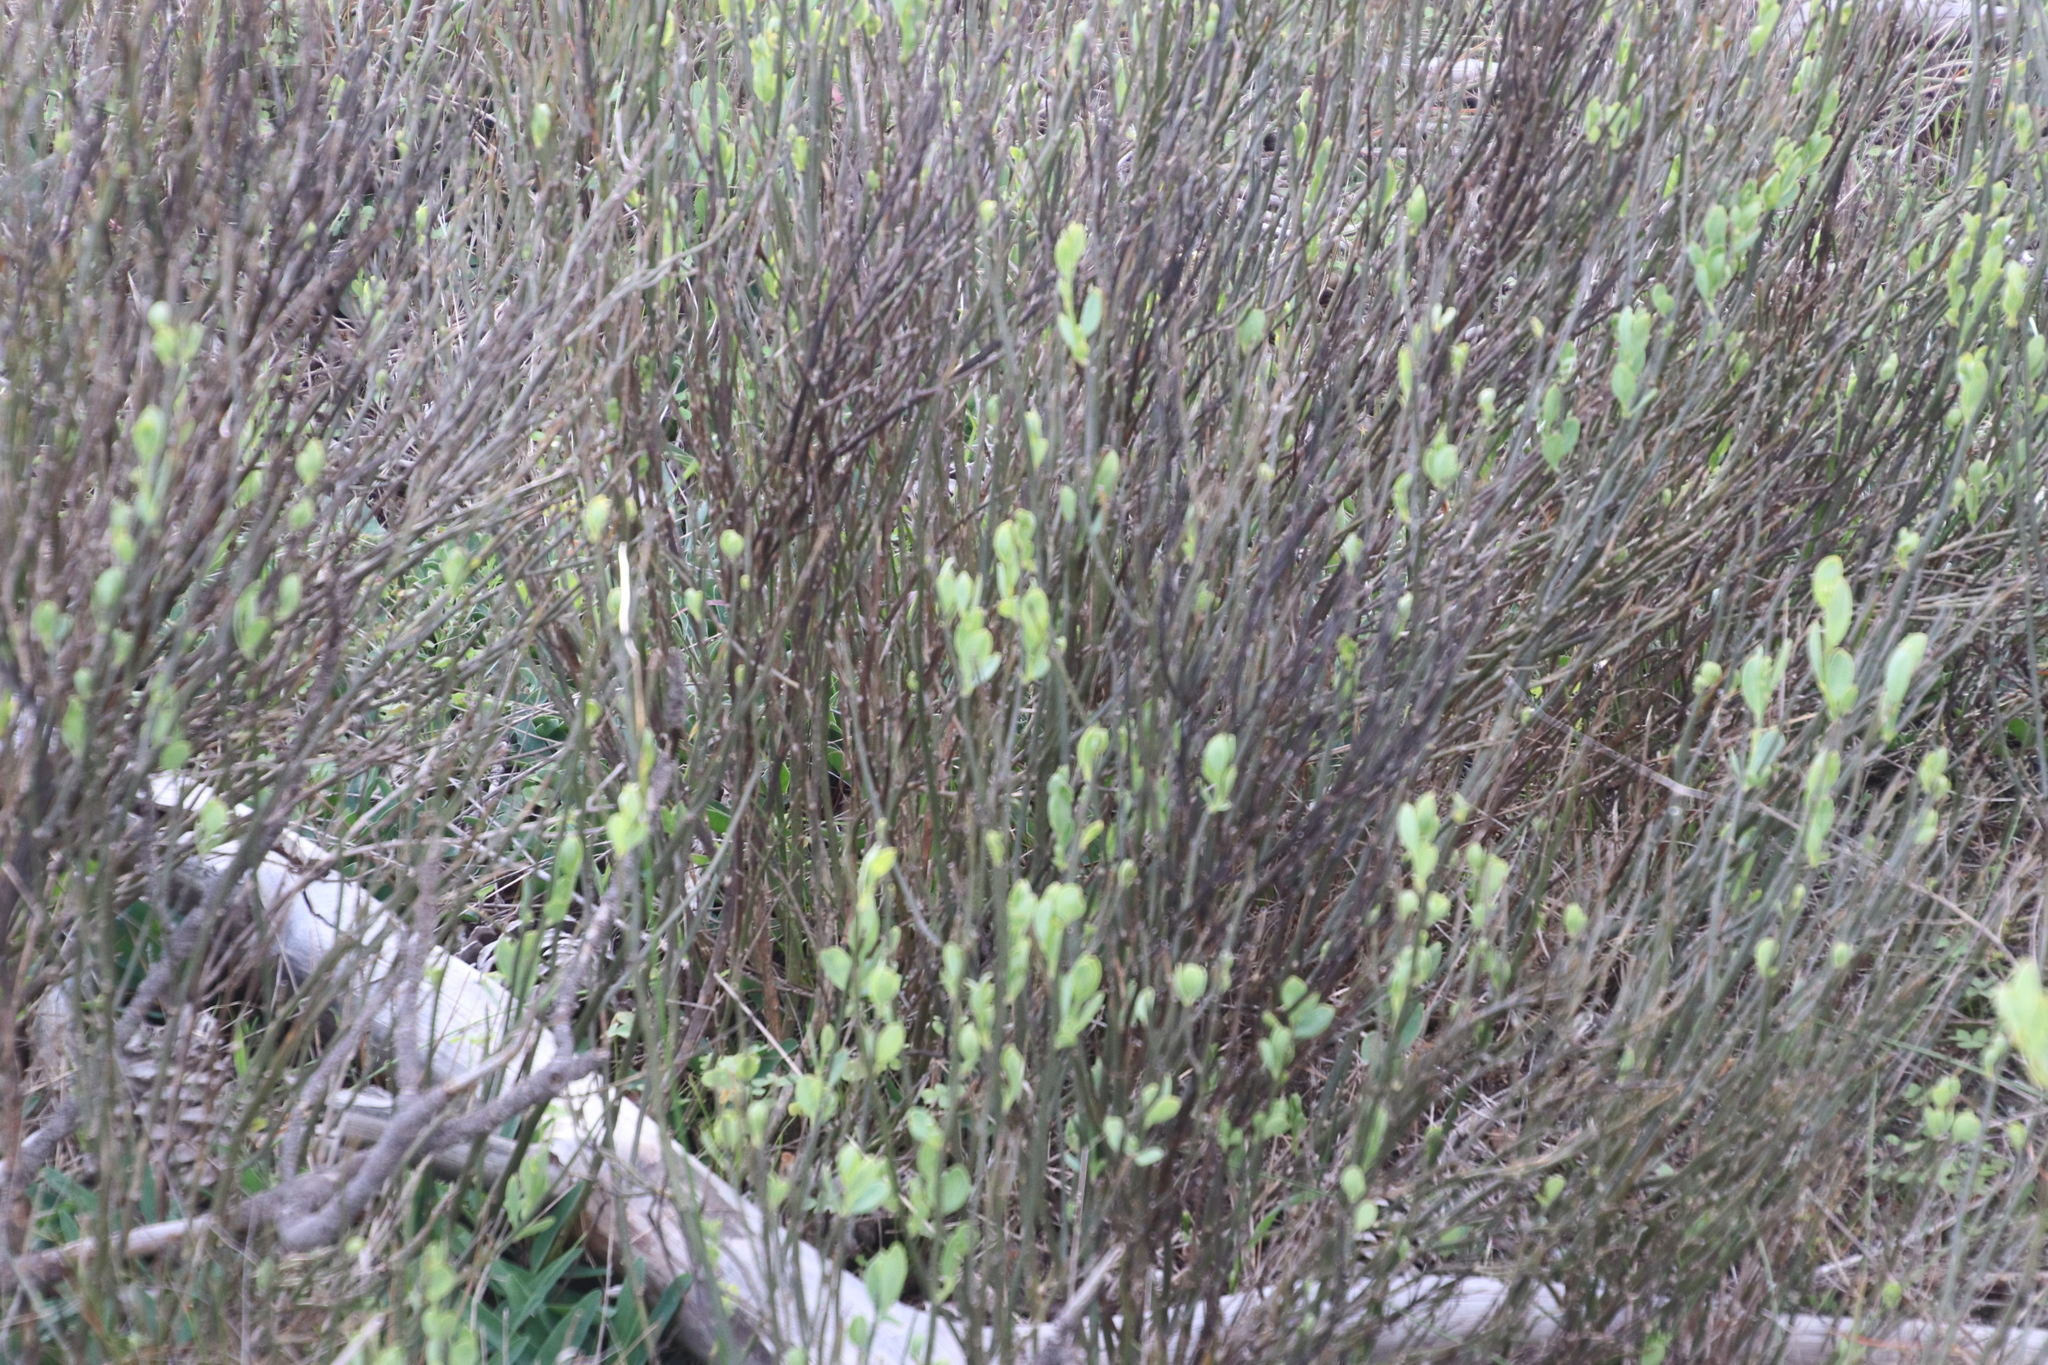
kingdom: Plantae
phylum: Tracheophyta
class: Magnoliopsida
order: Solanales
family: Montiniaceae
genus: Montinia
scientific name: Montinia caryophyllacea
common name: Wild clove-bush
